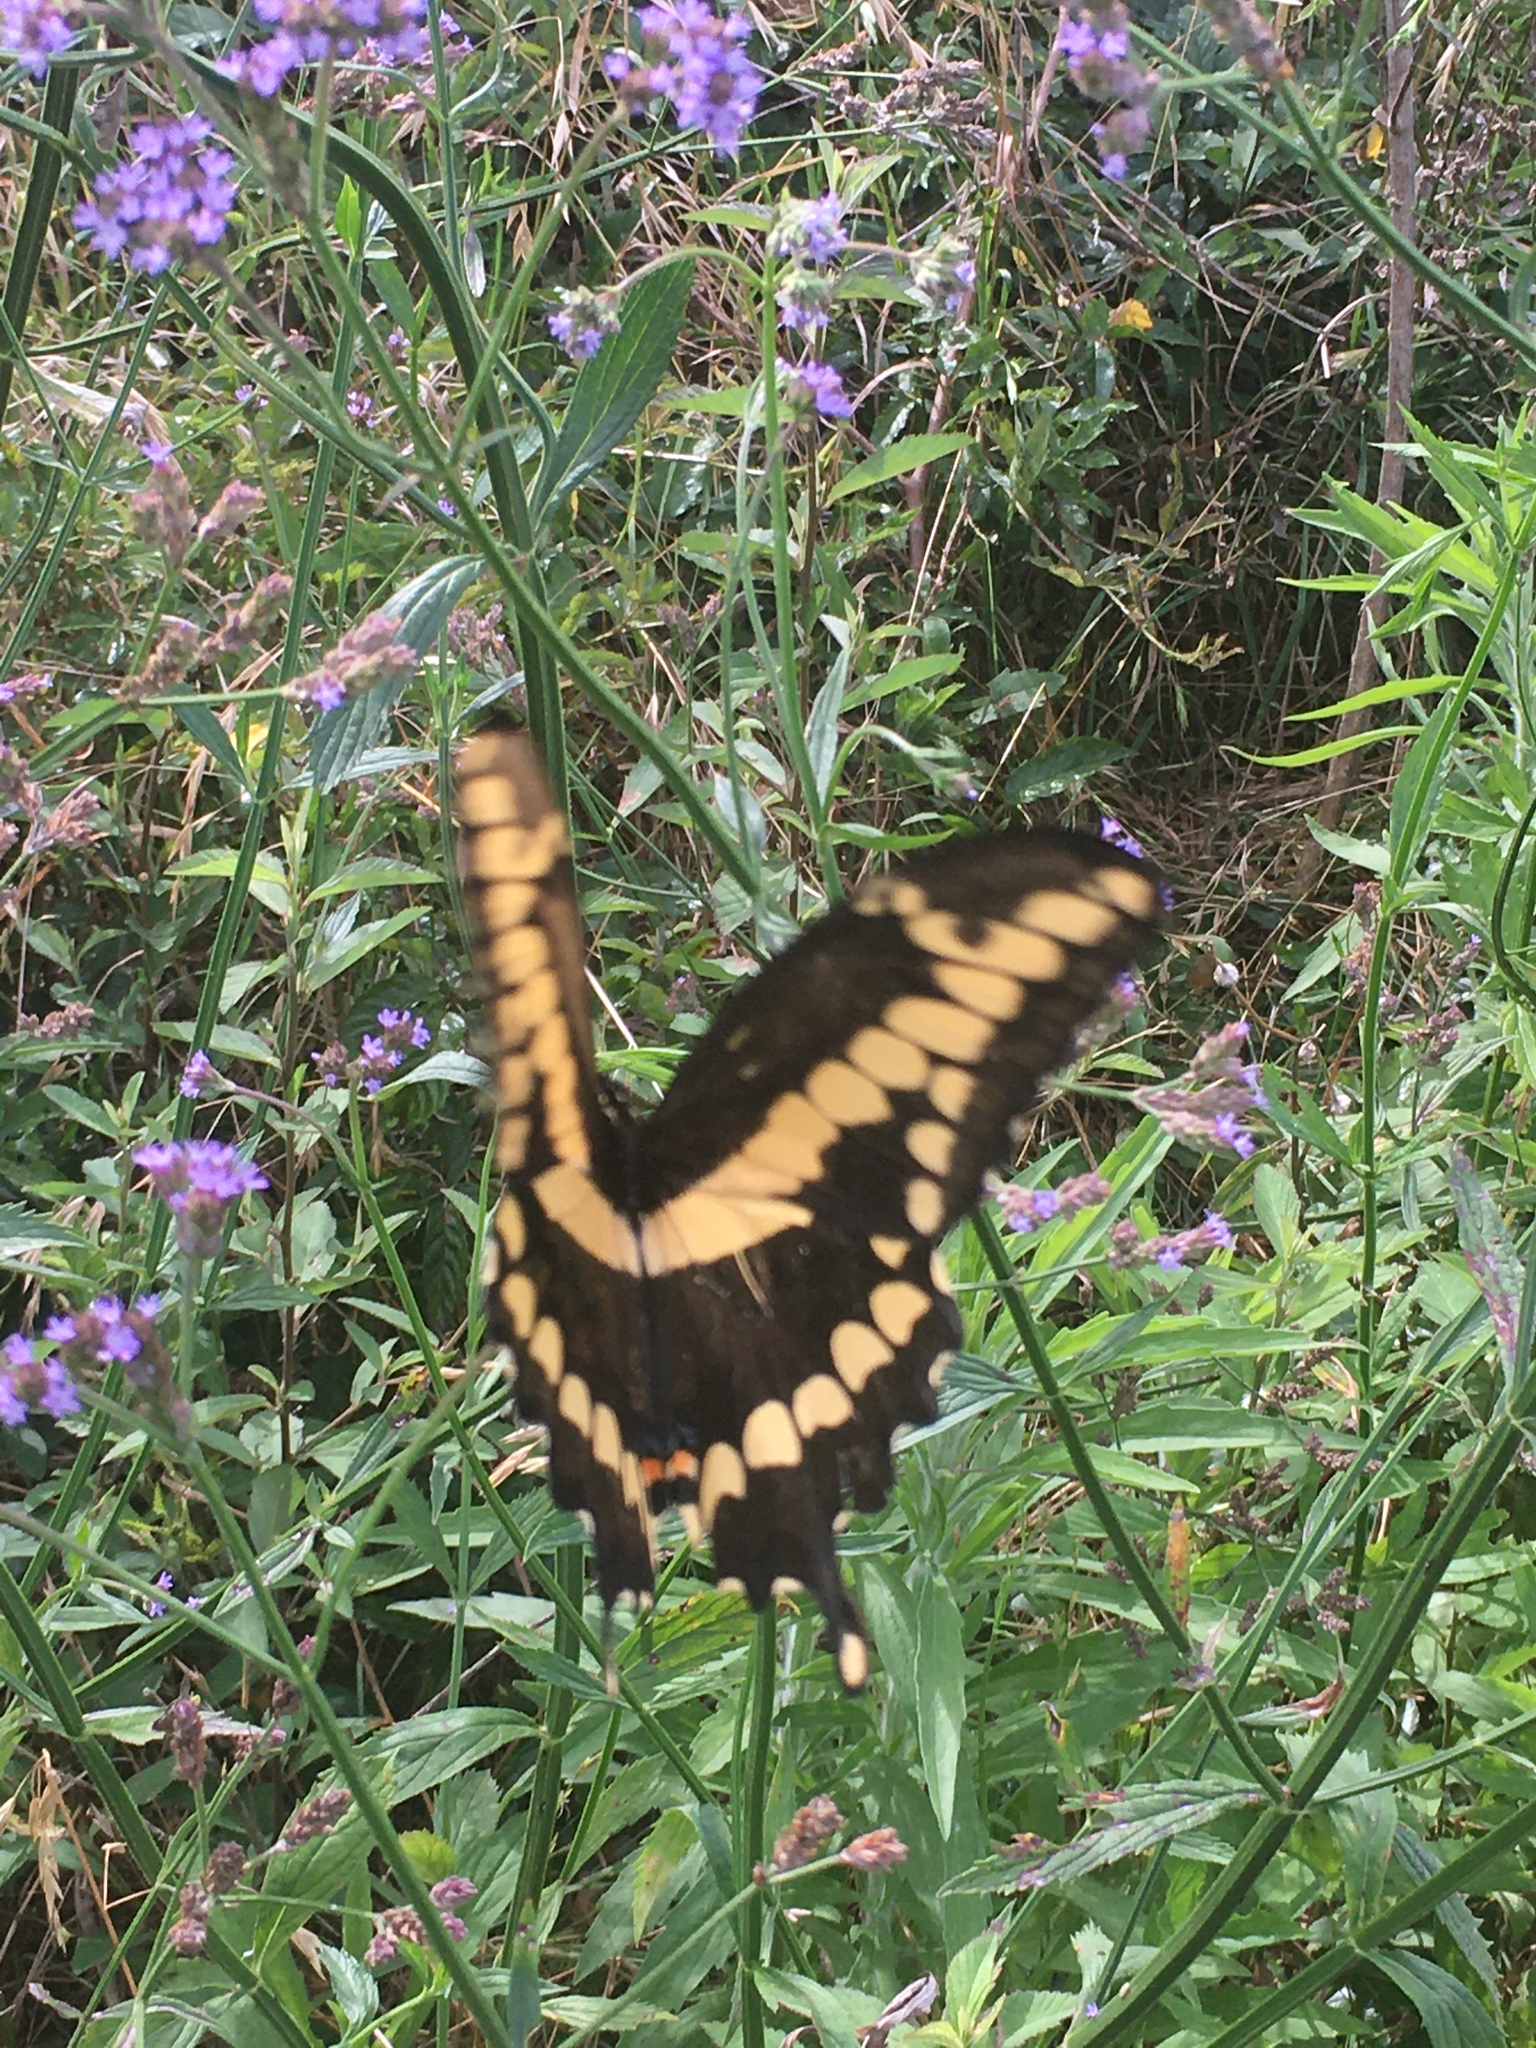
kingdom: Animalia
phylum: Arthropoda
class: Insecta
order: Lepidoptera
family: Papilionidae
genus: Papilio
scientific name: Papilio cresphontes
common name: Giant swallowtail
